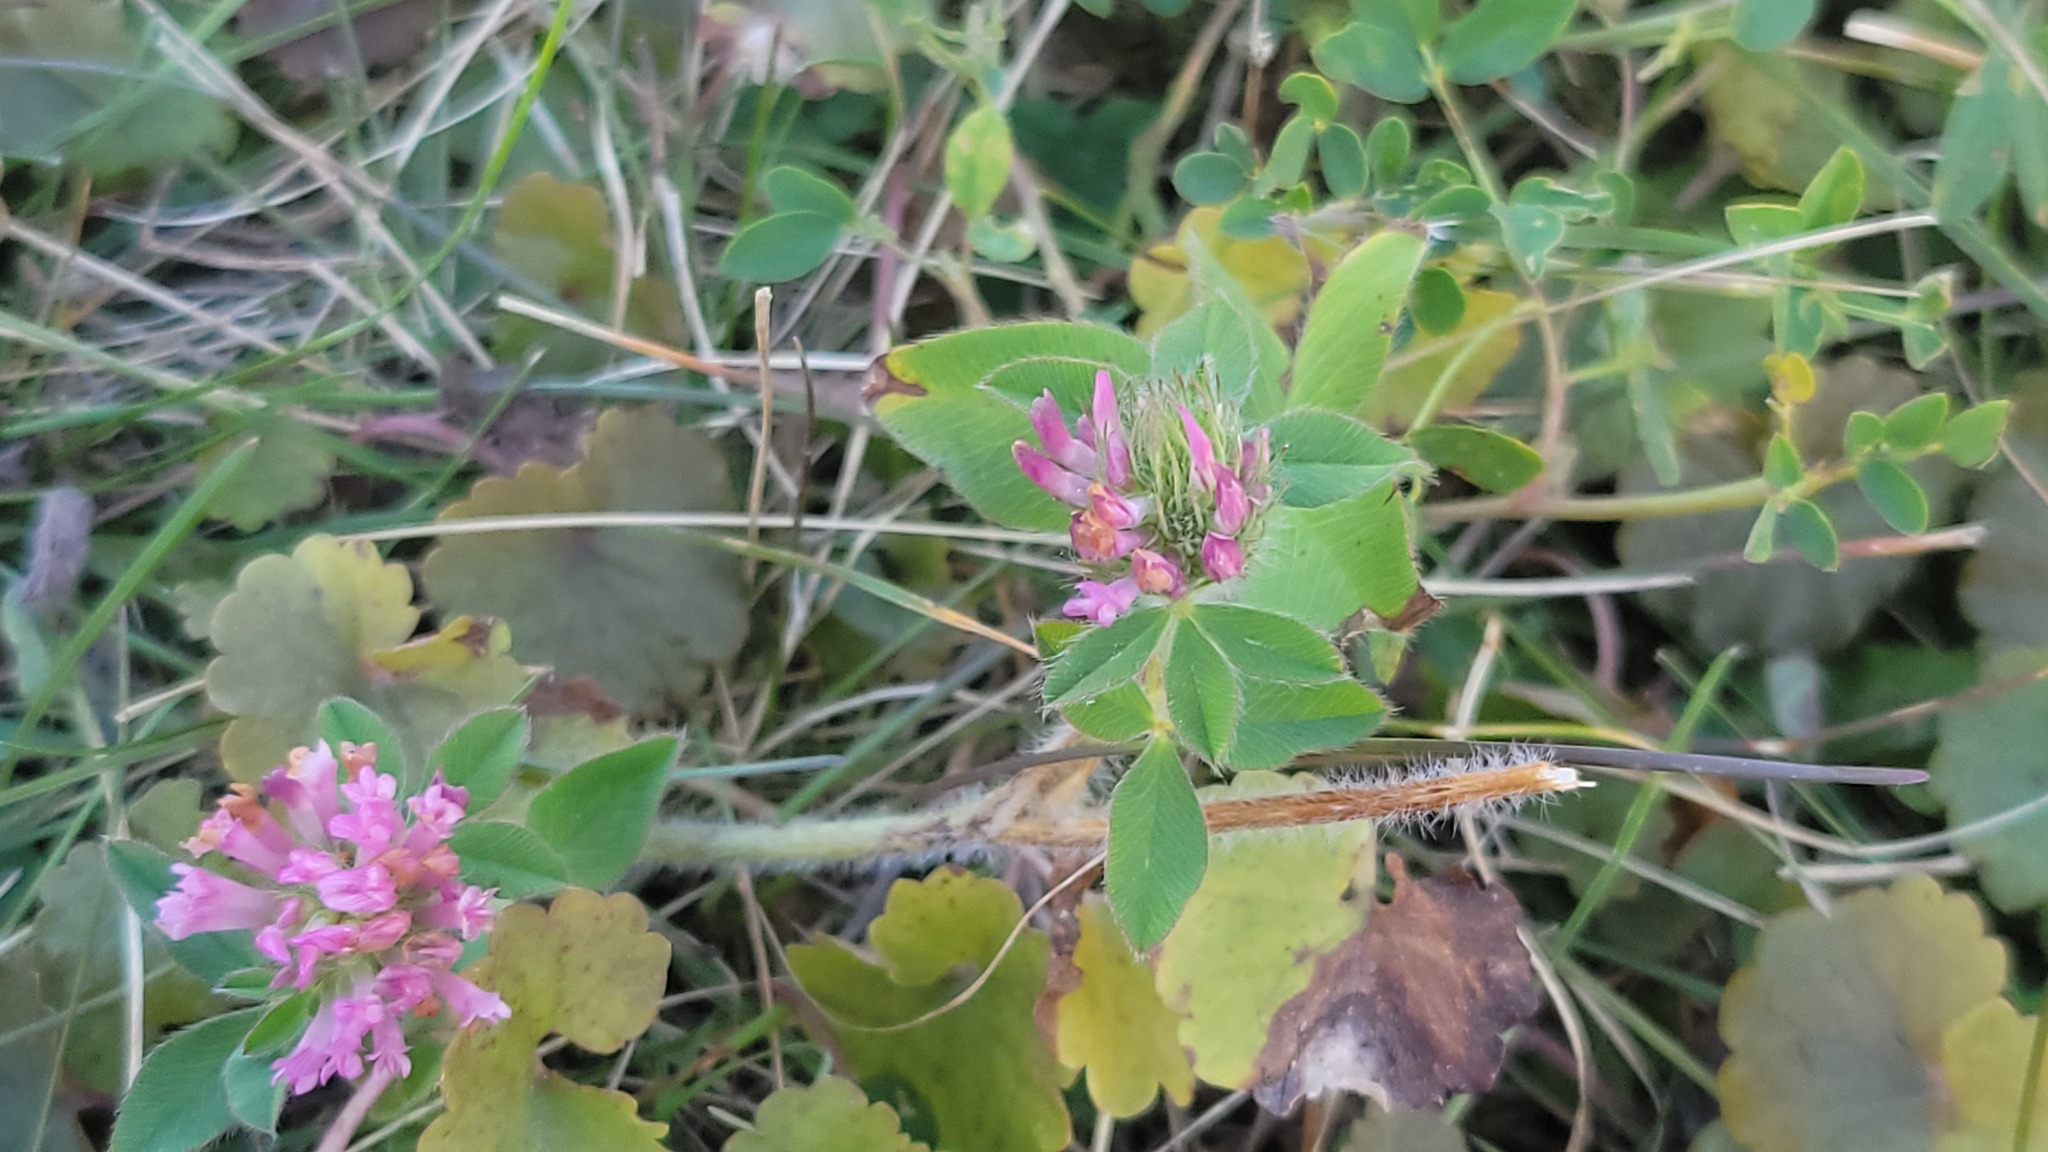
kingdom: Plantae
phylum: Tracheophyta
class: Magnoliopsida
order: Fabales
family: Fabaceae
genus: Trifolium
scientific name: Trifolium pratense
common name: Red clover
